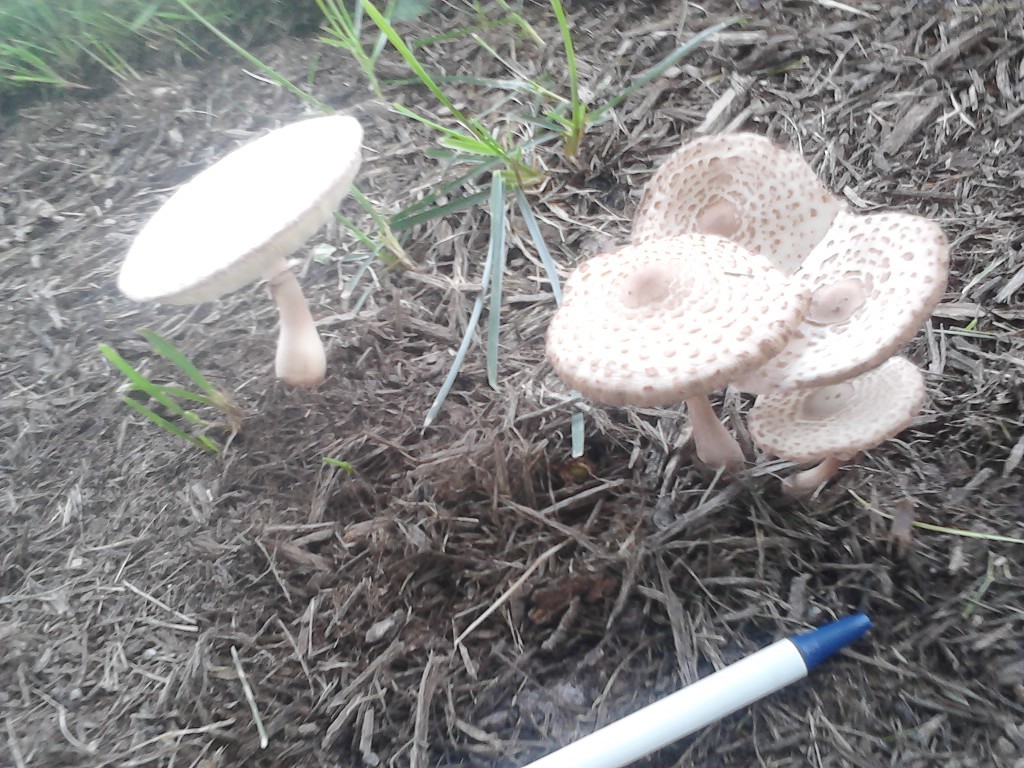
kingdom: Fungi
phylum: Basidiomycota
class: Agaricomycetes
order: Agaricales
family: Agaricaceae
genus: Leucoagaricus
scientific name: Leucoagaricus americanus
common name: Reddening lepiota
